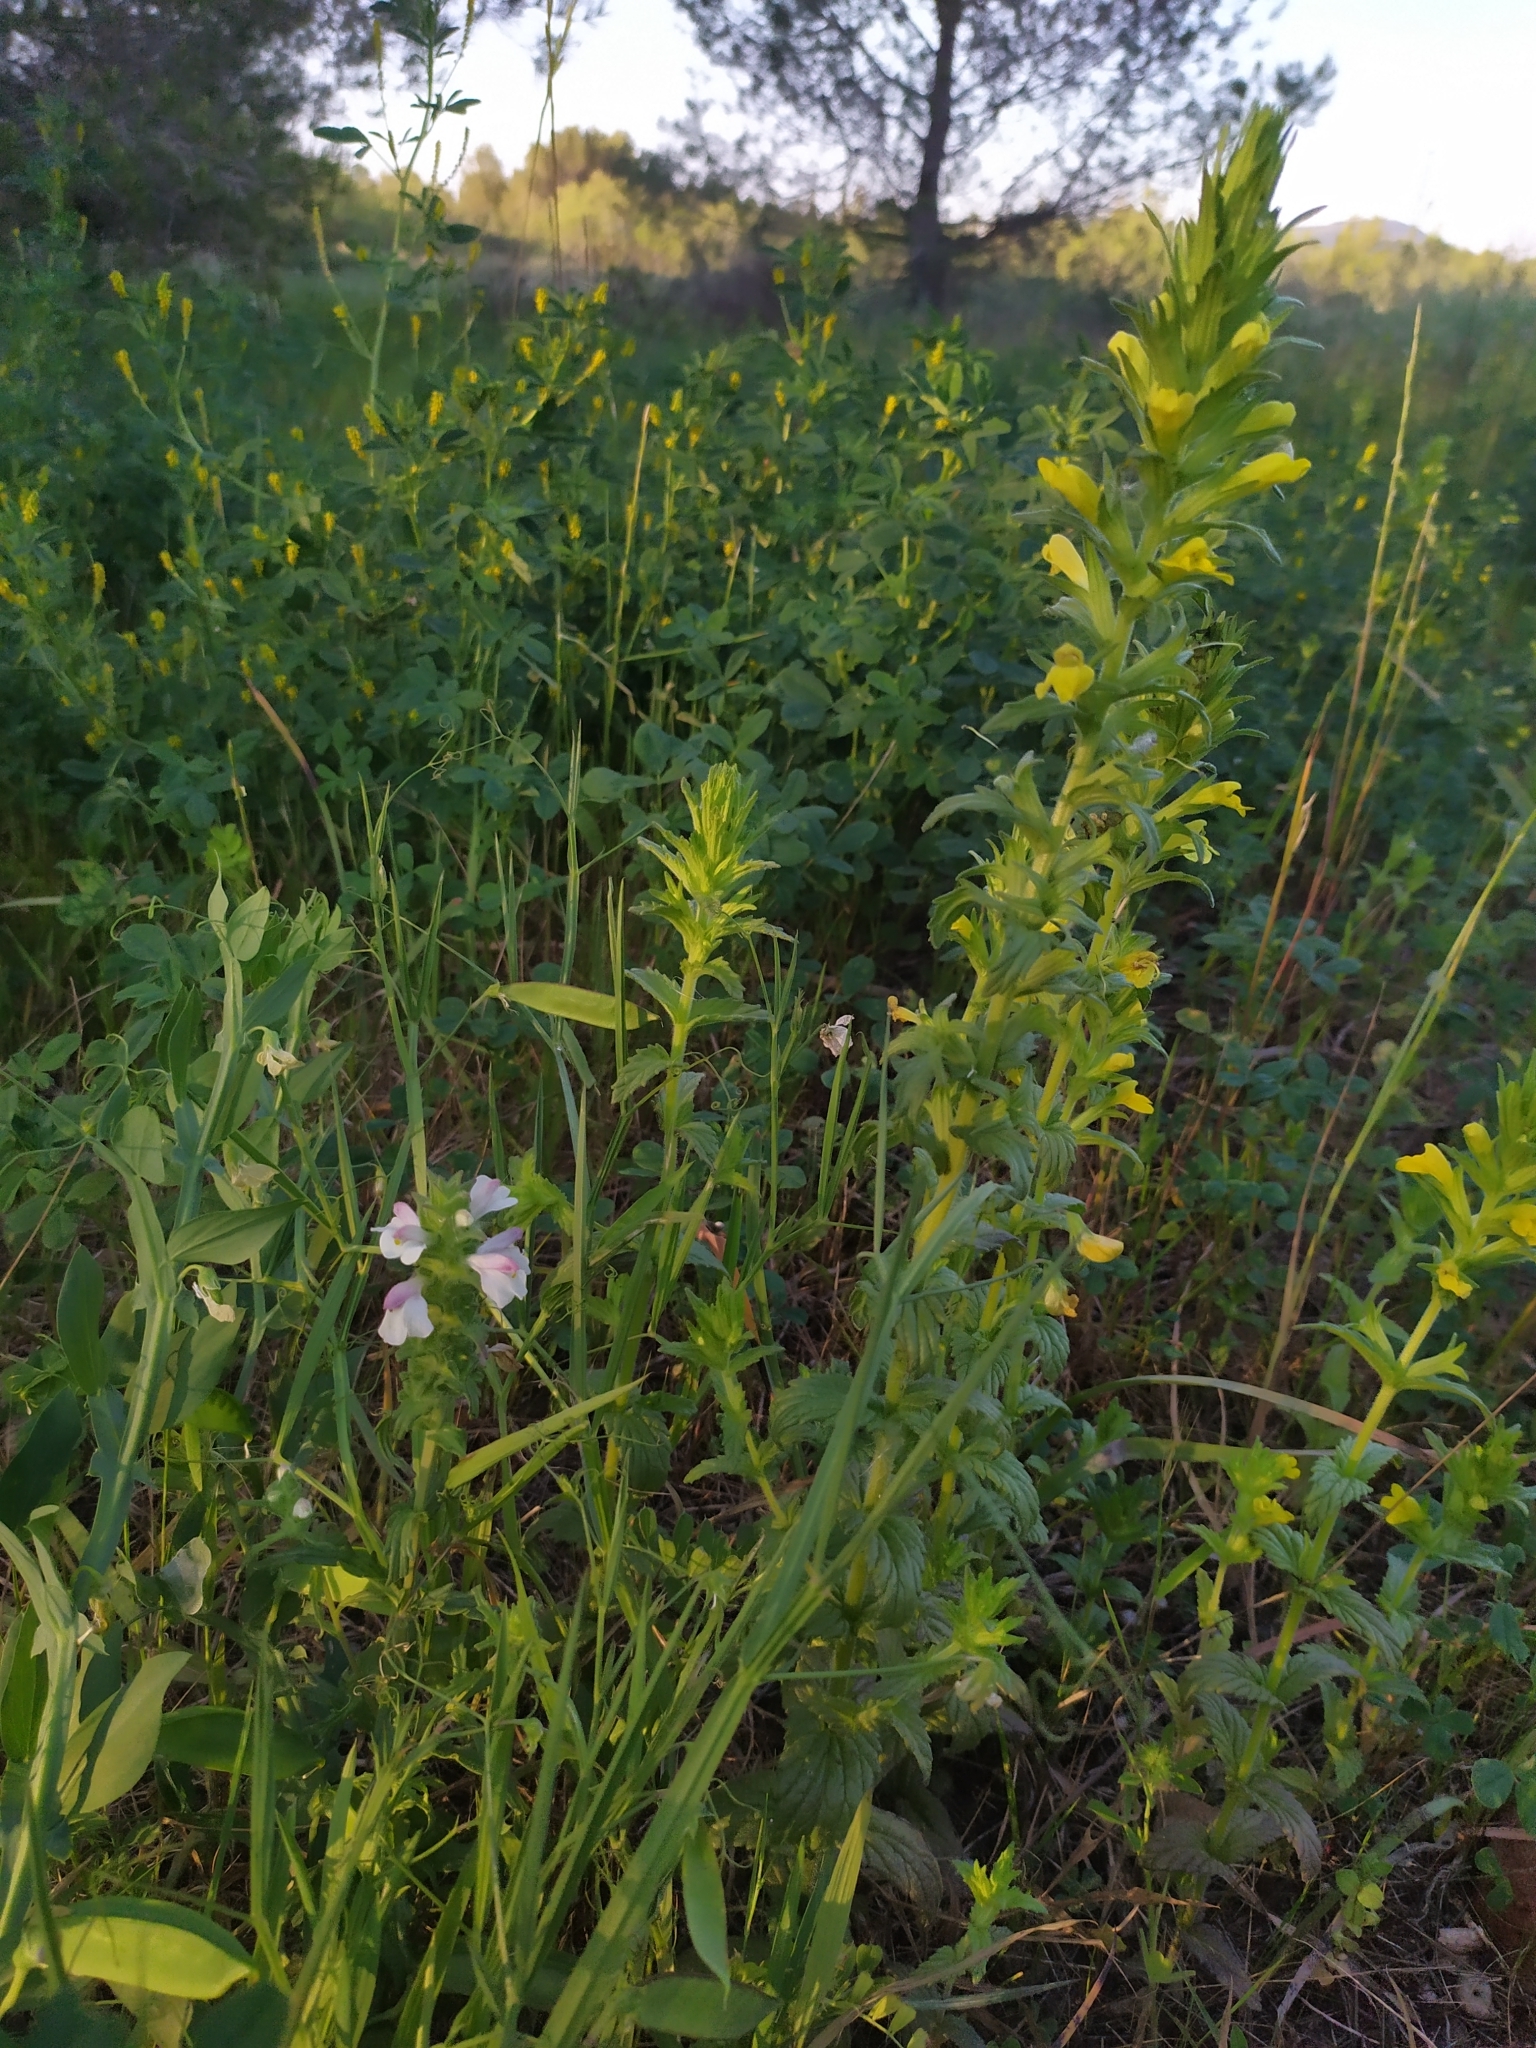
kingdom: Plantae
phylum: Tracheophyta
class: Magnoliopsida
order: Lamiales
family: Orobanchaceae
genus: Bellardia
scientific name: Bellardia trixago
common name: Mediterranean lineseed
